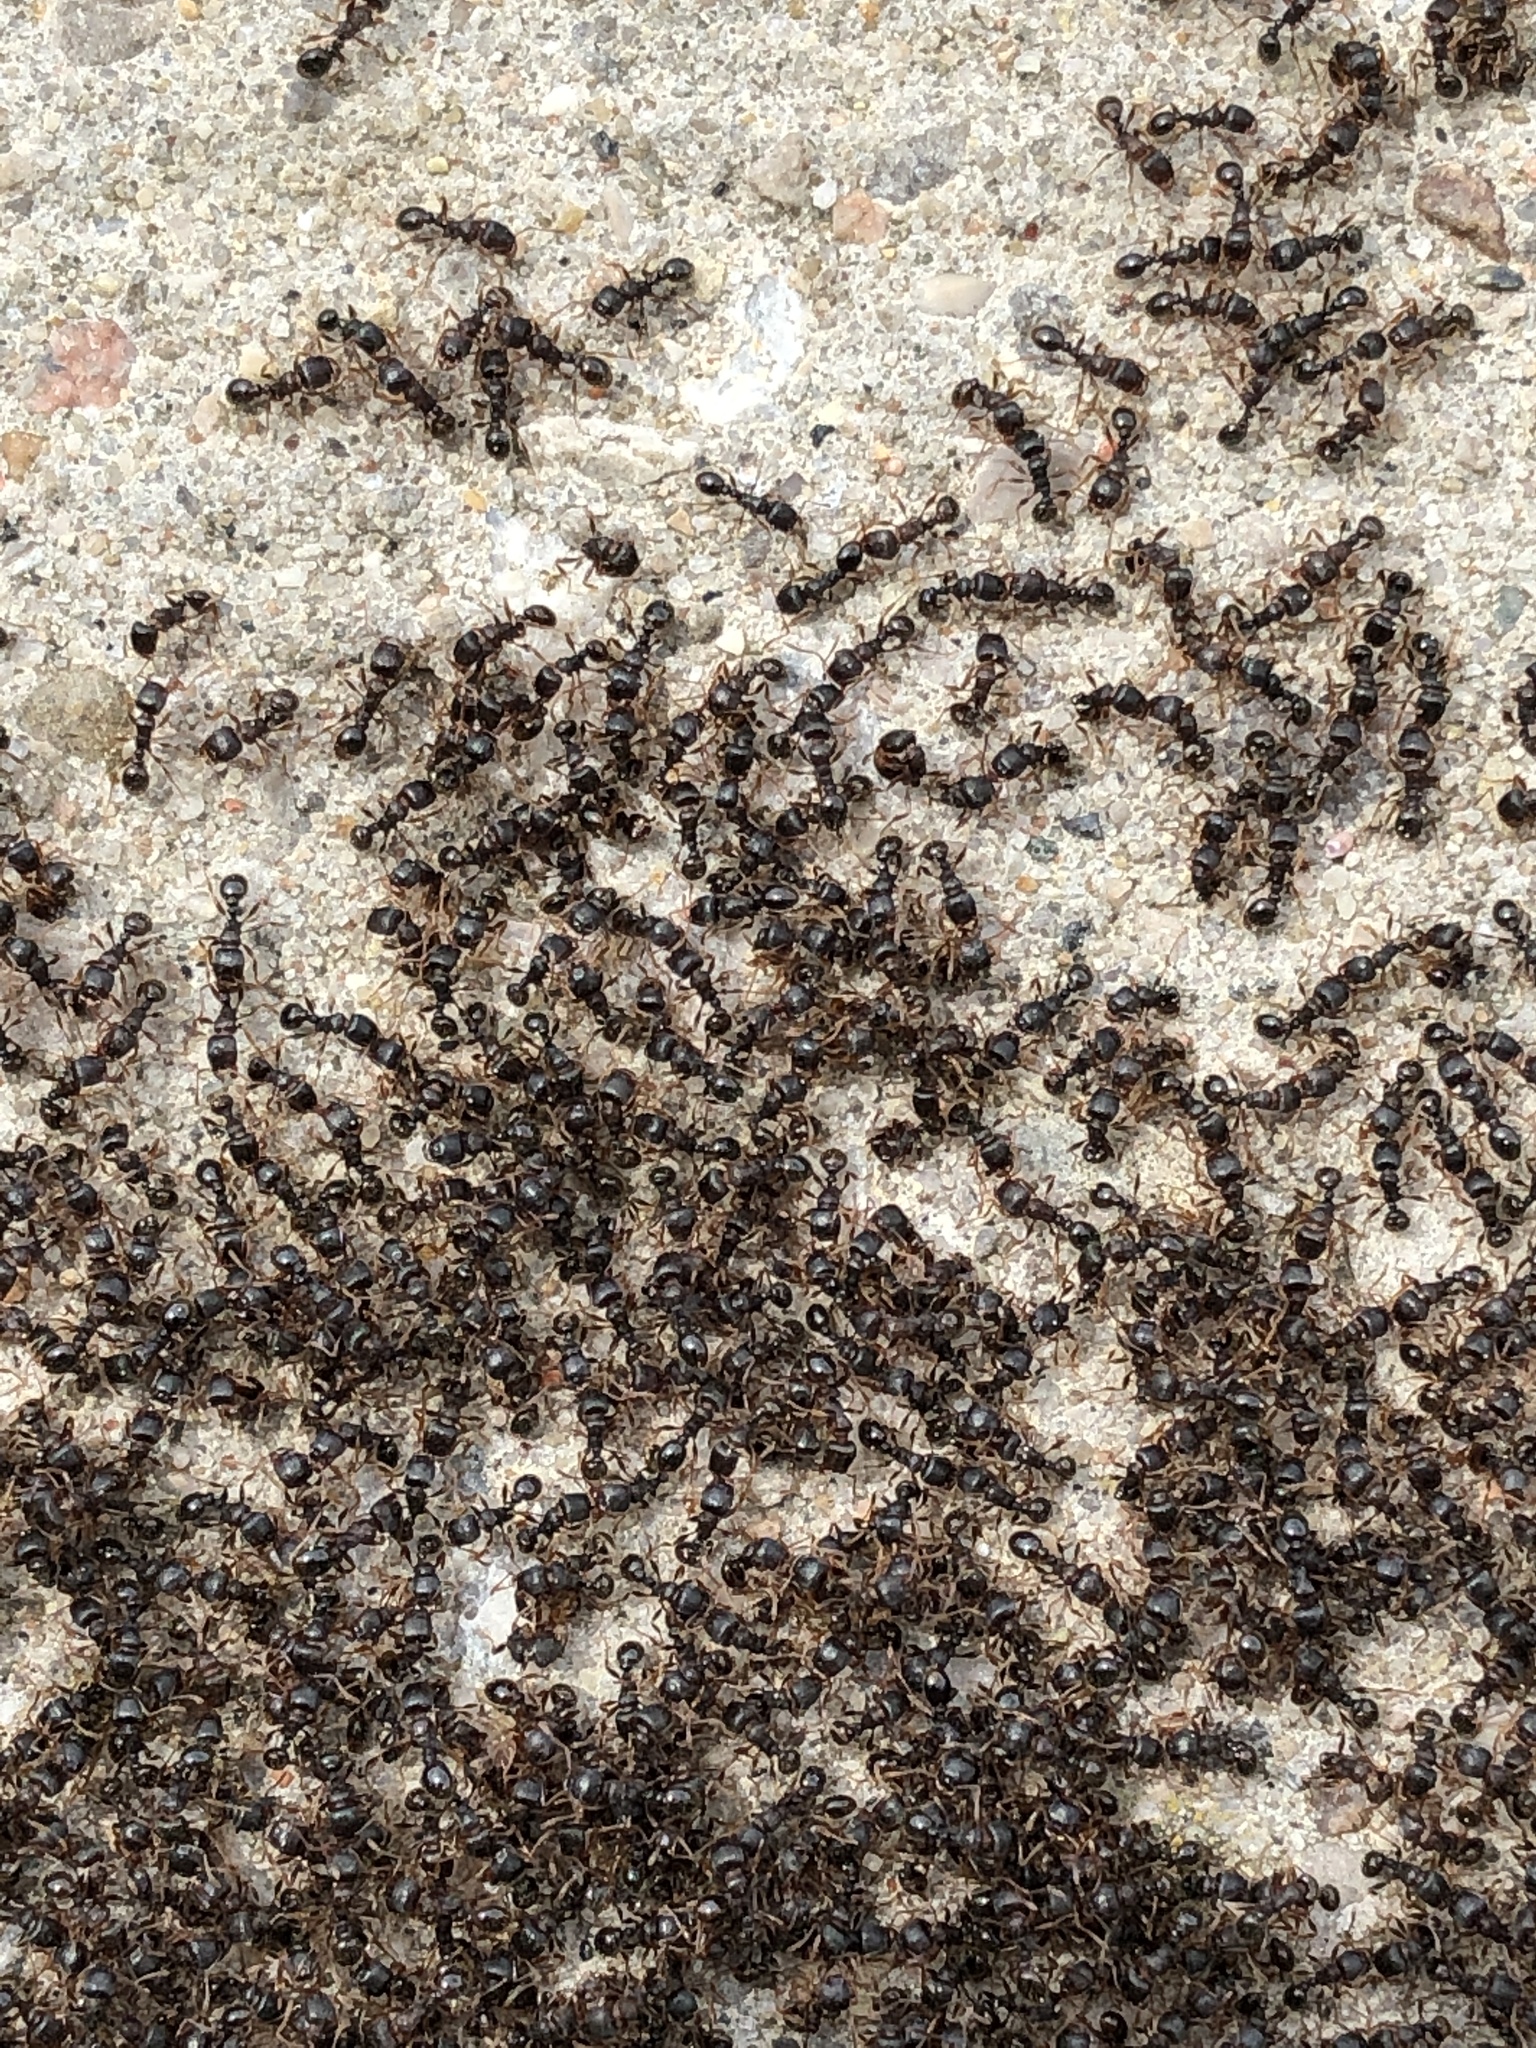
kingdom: Animalia
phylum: Arthropoda
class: Insecta
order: Hymenoptera
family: Formicidae
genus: Tetramorium
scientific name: Tetramorium immigrans
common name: Pavement ant
